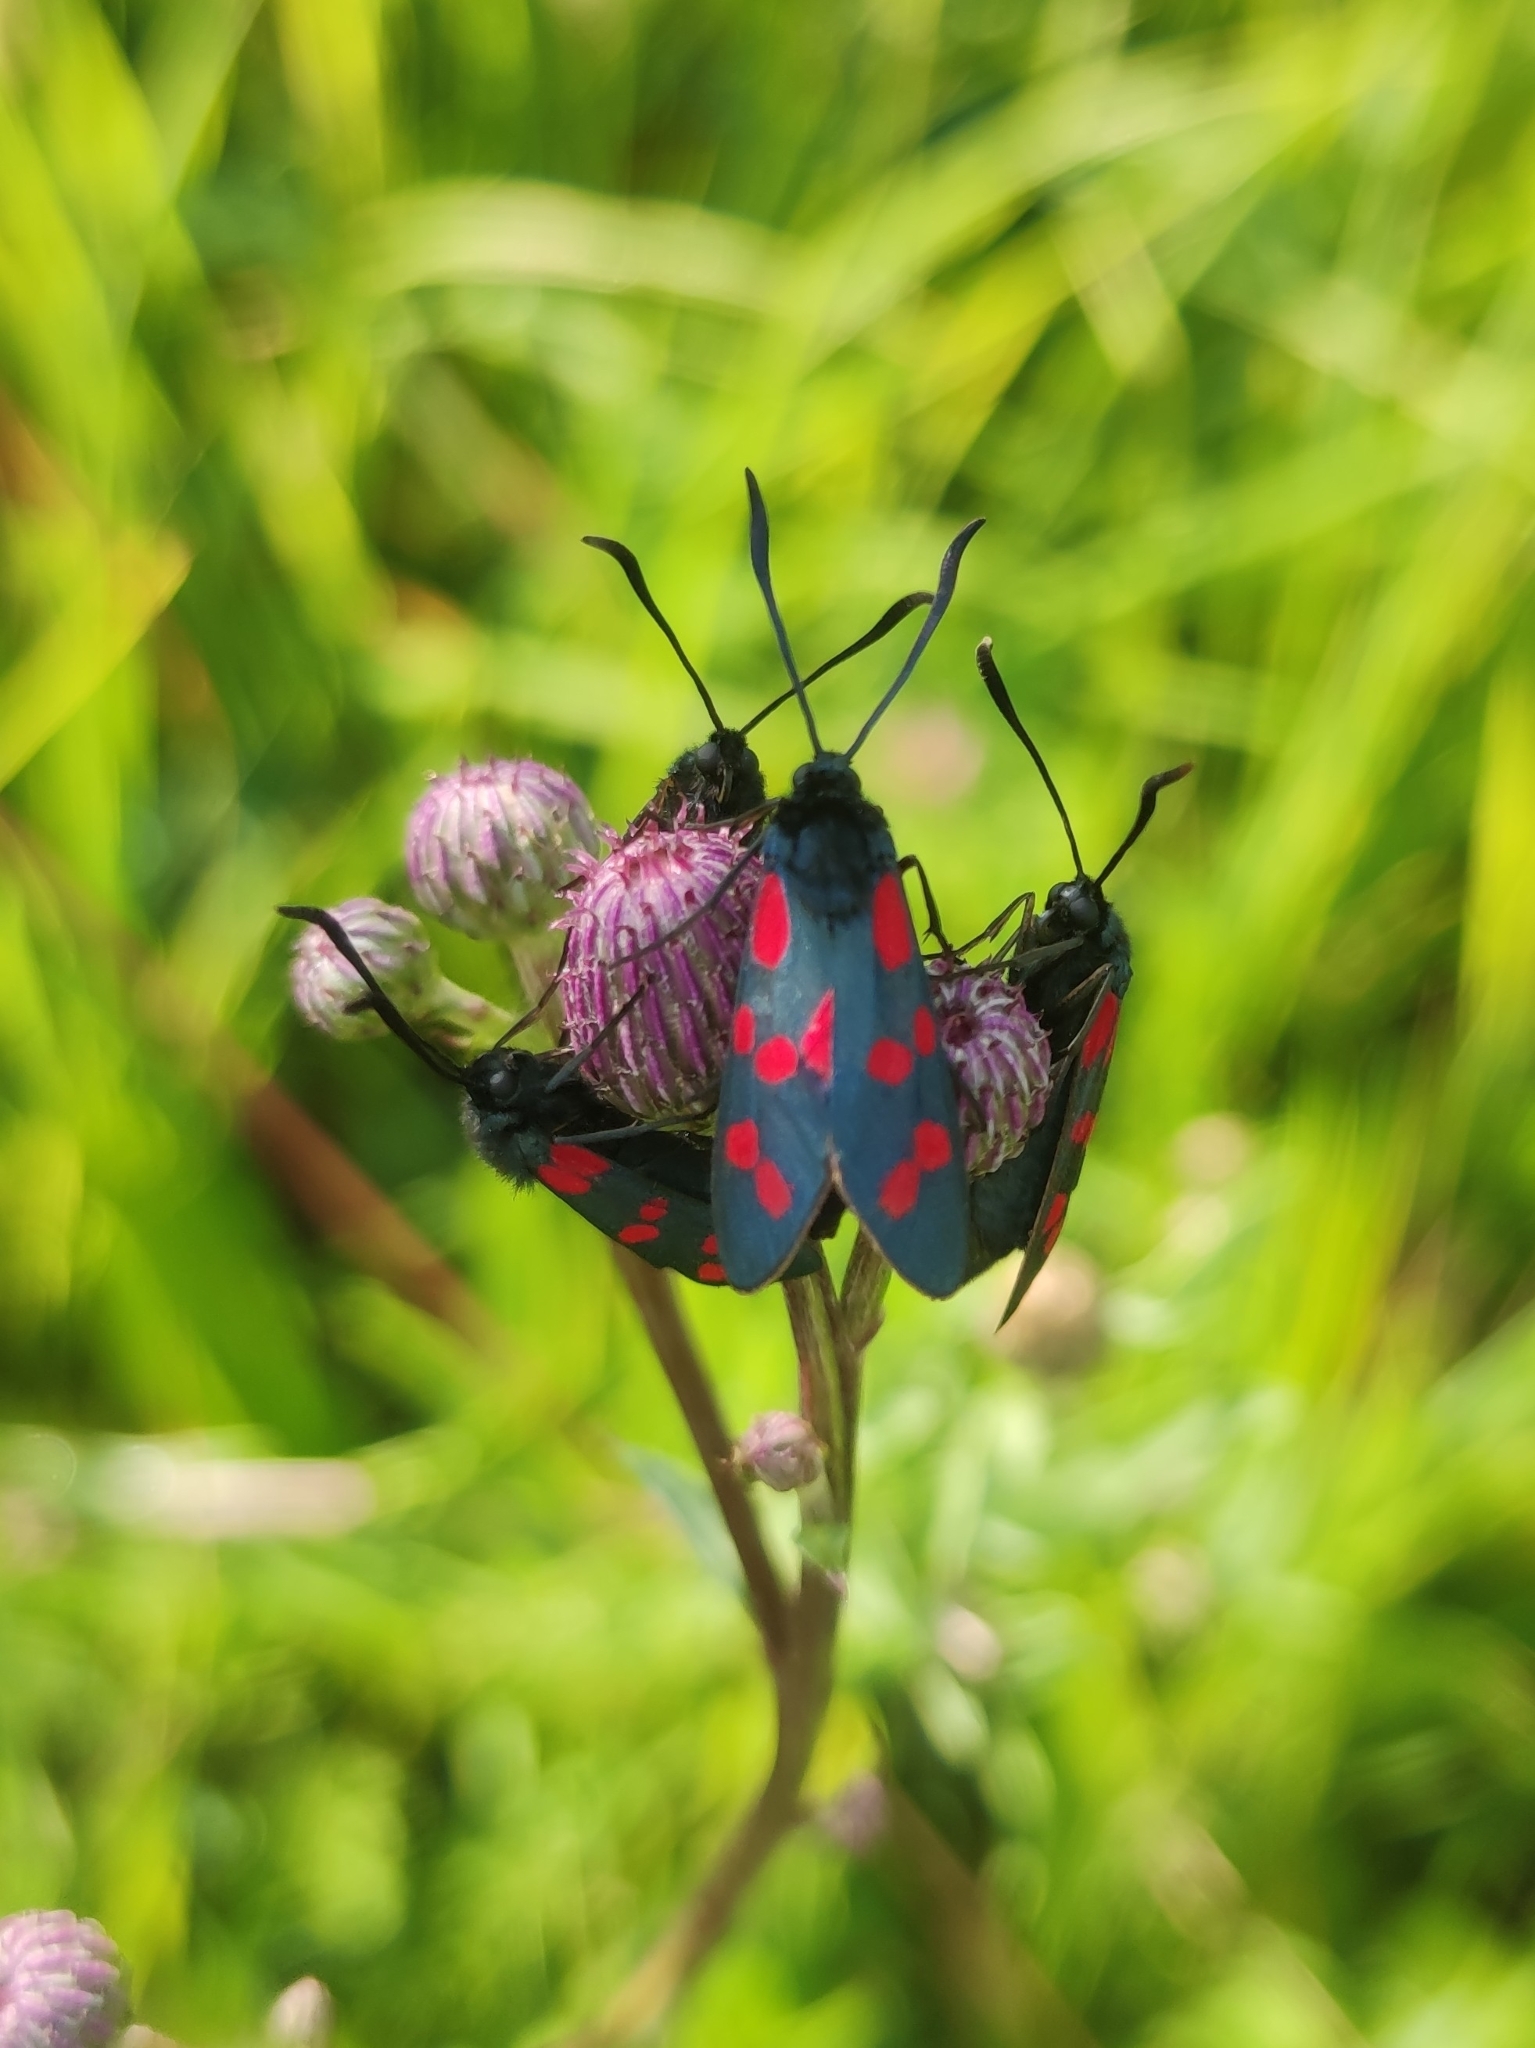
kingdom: Animalia
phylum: Arthropoda
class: Insecta
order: Lepidoptera
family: Zygaenidae
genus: Zygaena
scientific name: Zygaena filipendulae
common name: Six-spot burnet
